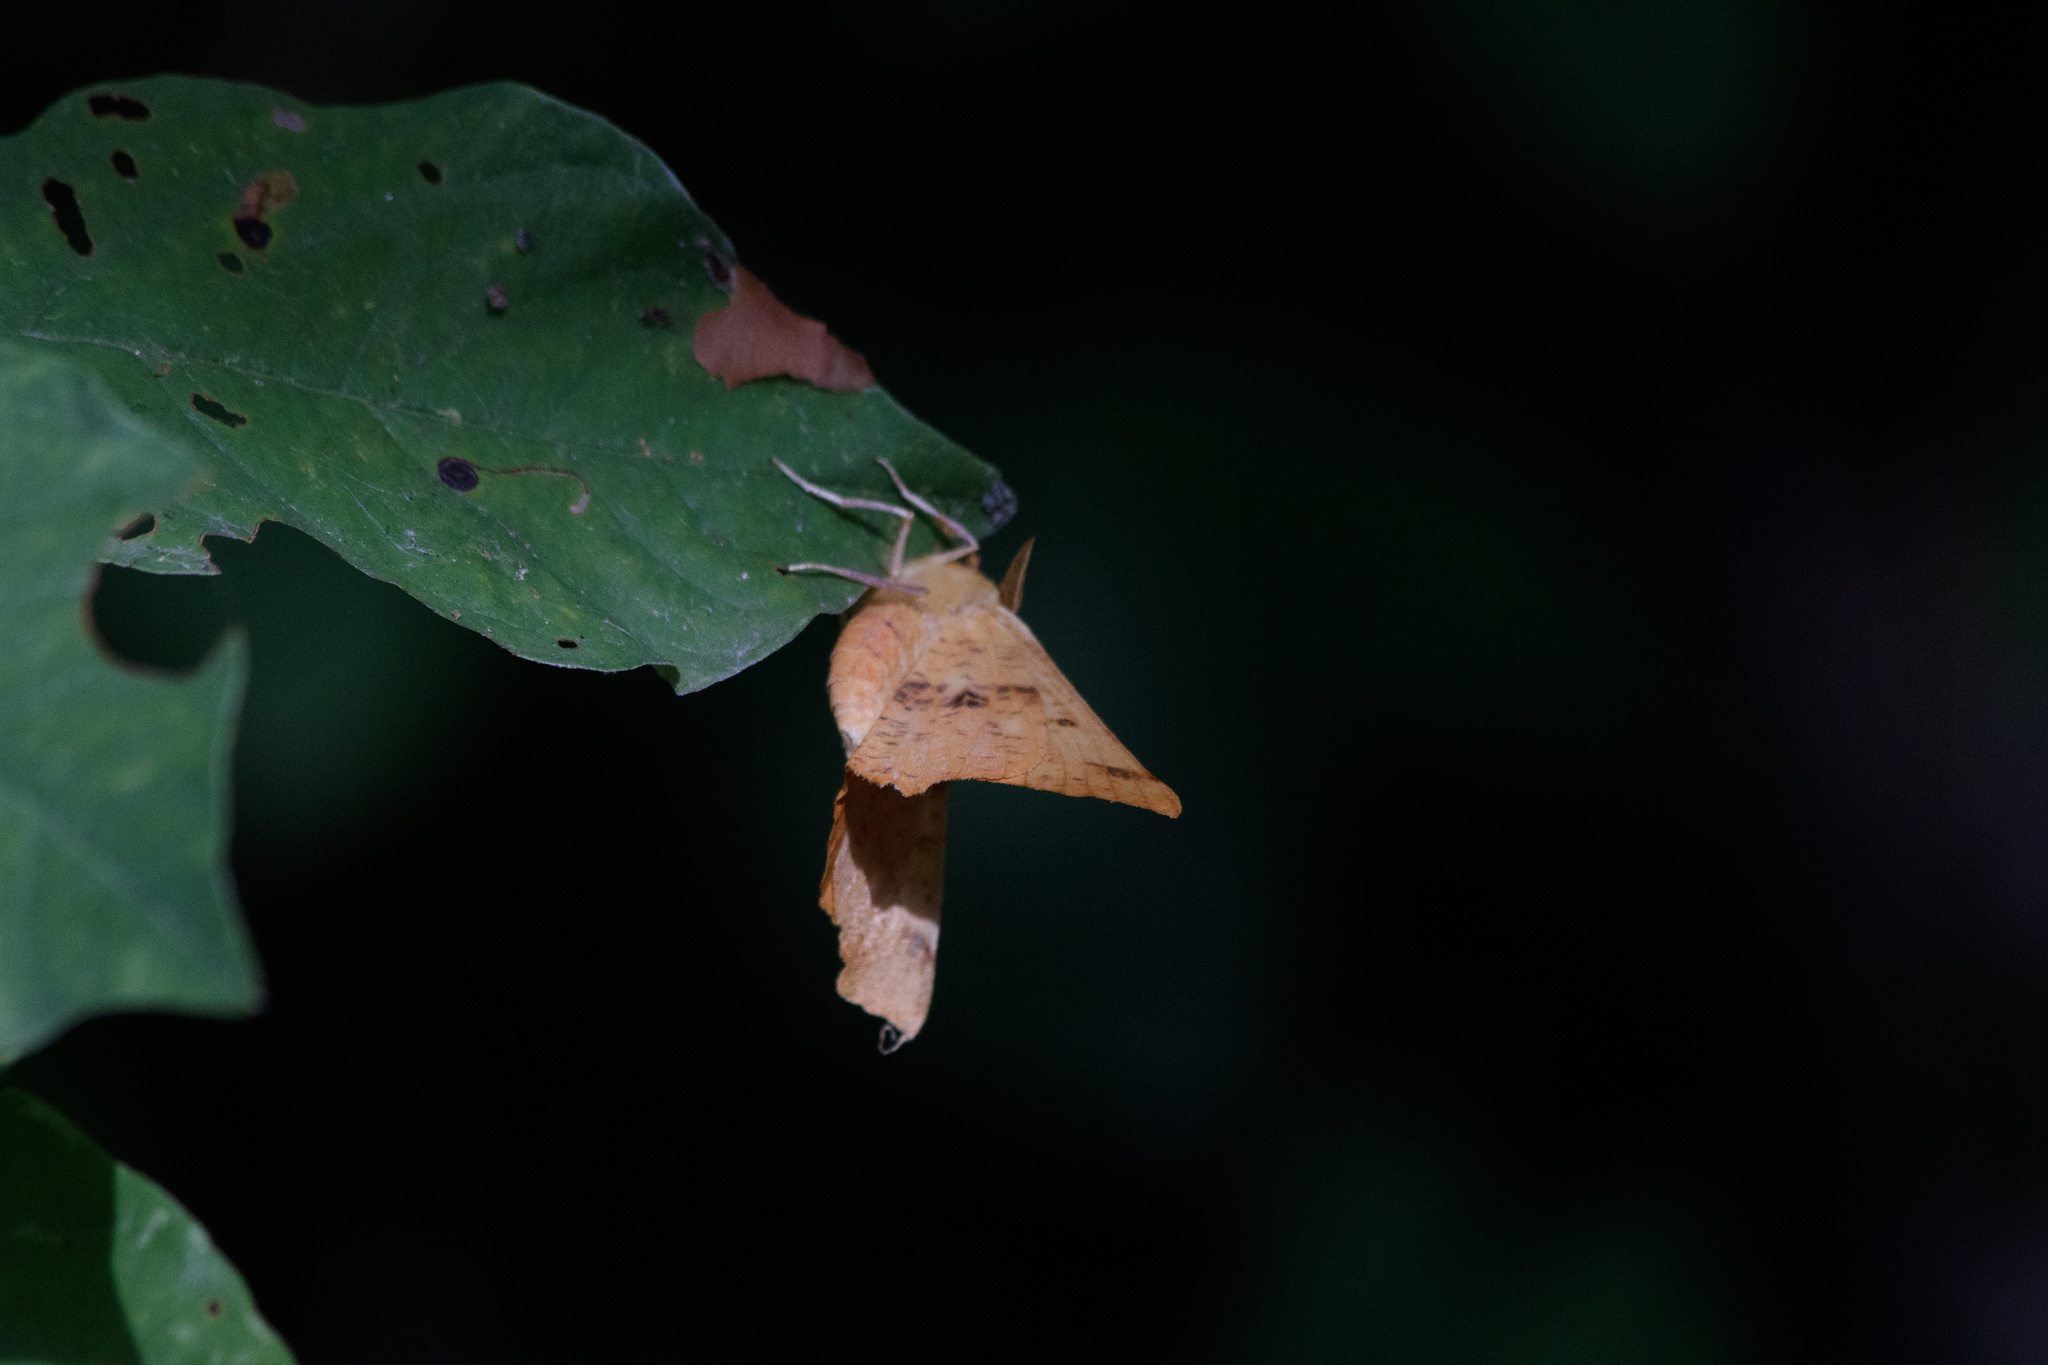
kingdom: Animalia
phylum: Arthropoda
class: Insecta
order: Lepidoptera
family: Geometridae
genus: Ennomos
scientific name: Ennomos autumnaria
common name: Large thorn
